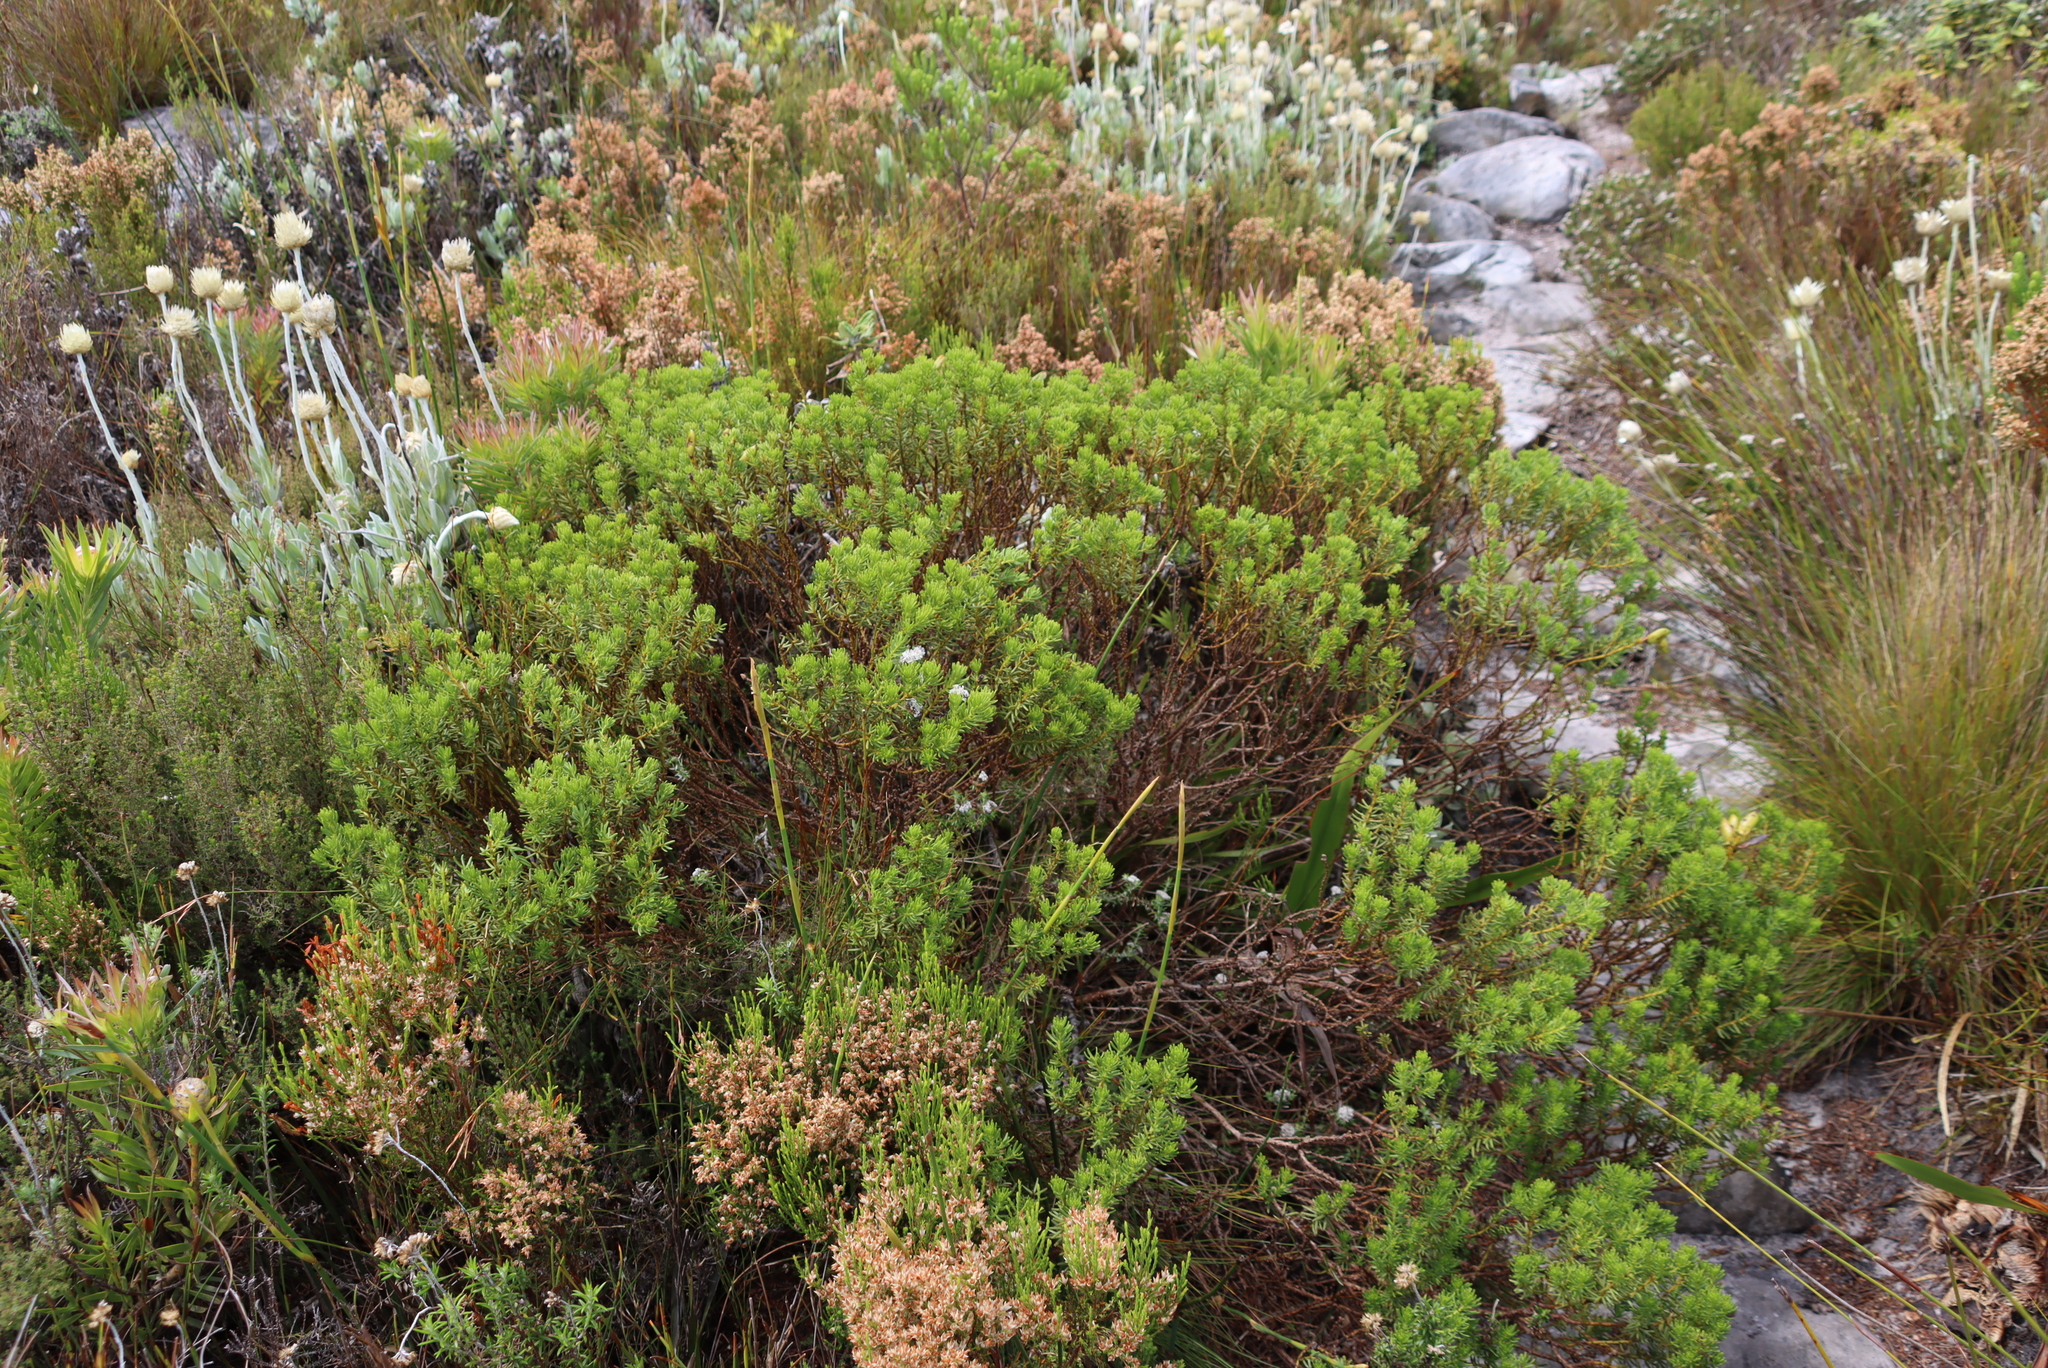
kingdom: Plantae
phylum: Tracheophyta
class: Magnoliopsida
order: Fabales
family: Fabaceae
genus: Cyclopia
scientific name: Cyclopia genistoides
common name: Honeybush tea
